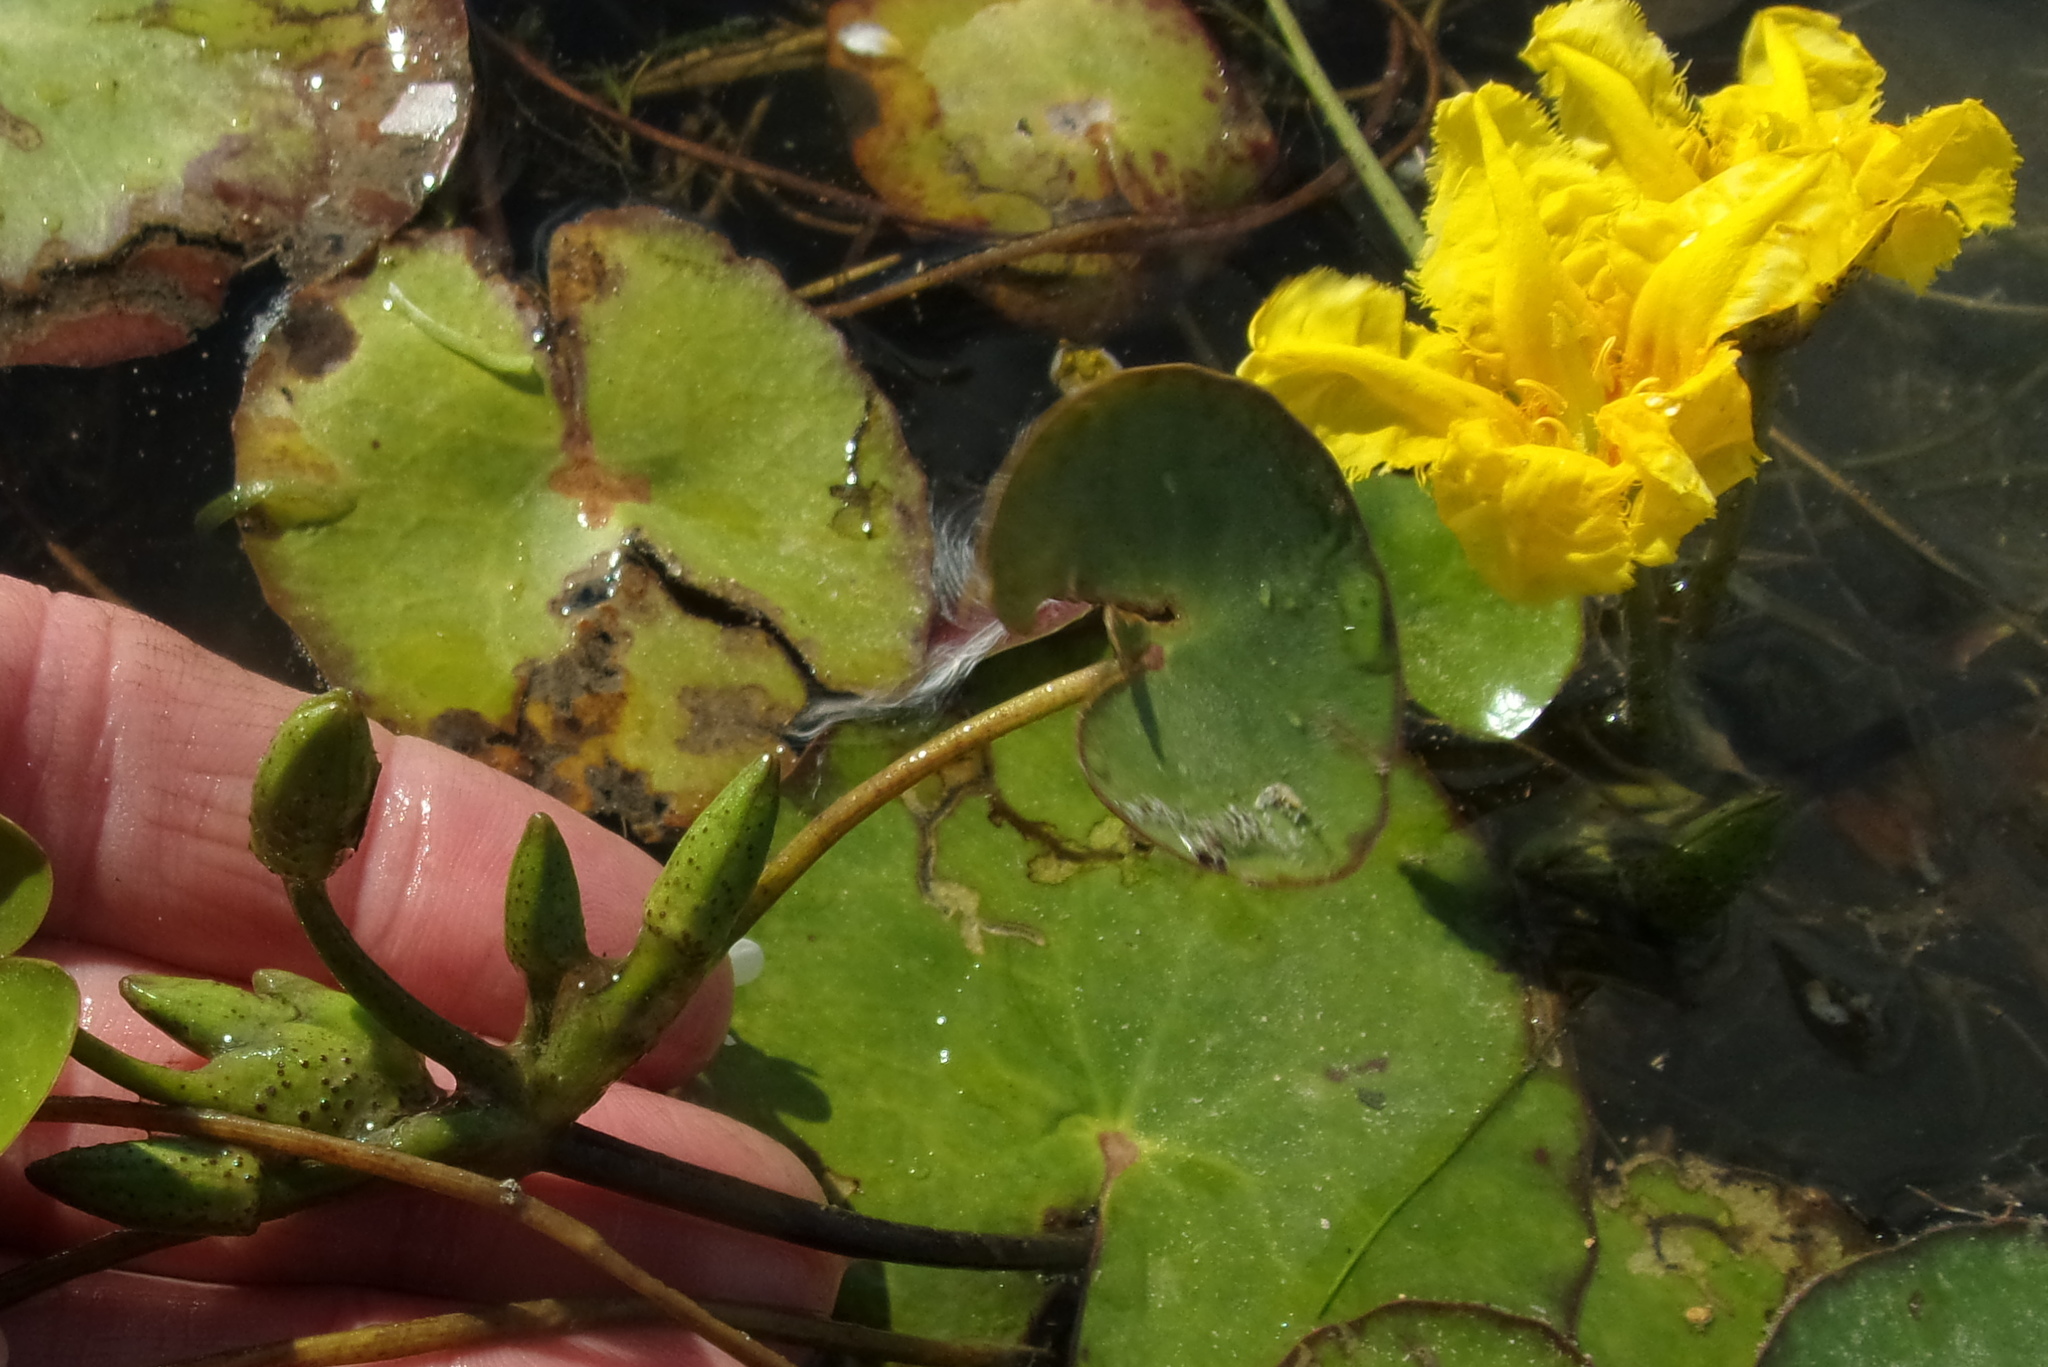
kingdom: Plantae
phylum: Tracheophyta
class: Magnoliopsida
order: Asterales
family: Menyanthaceae
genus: Nymphoides
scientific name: Nymphoides peltata
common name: Fringed water-lily
